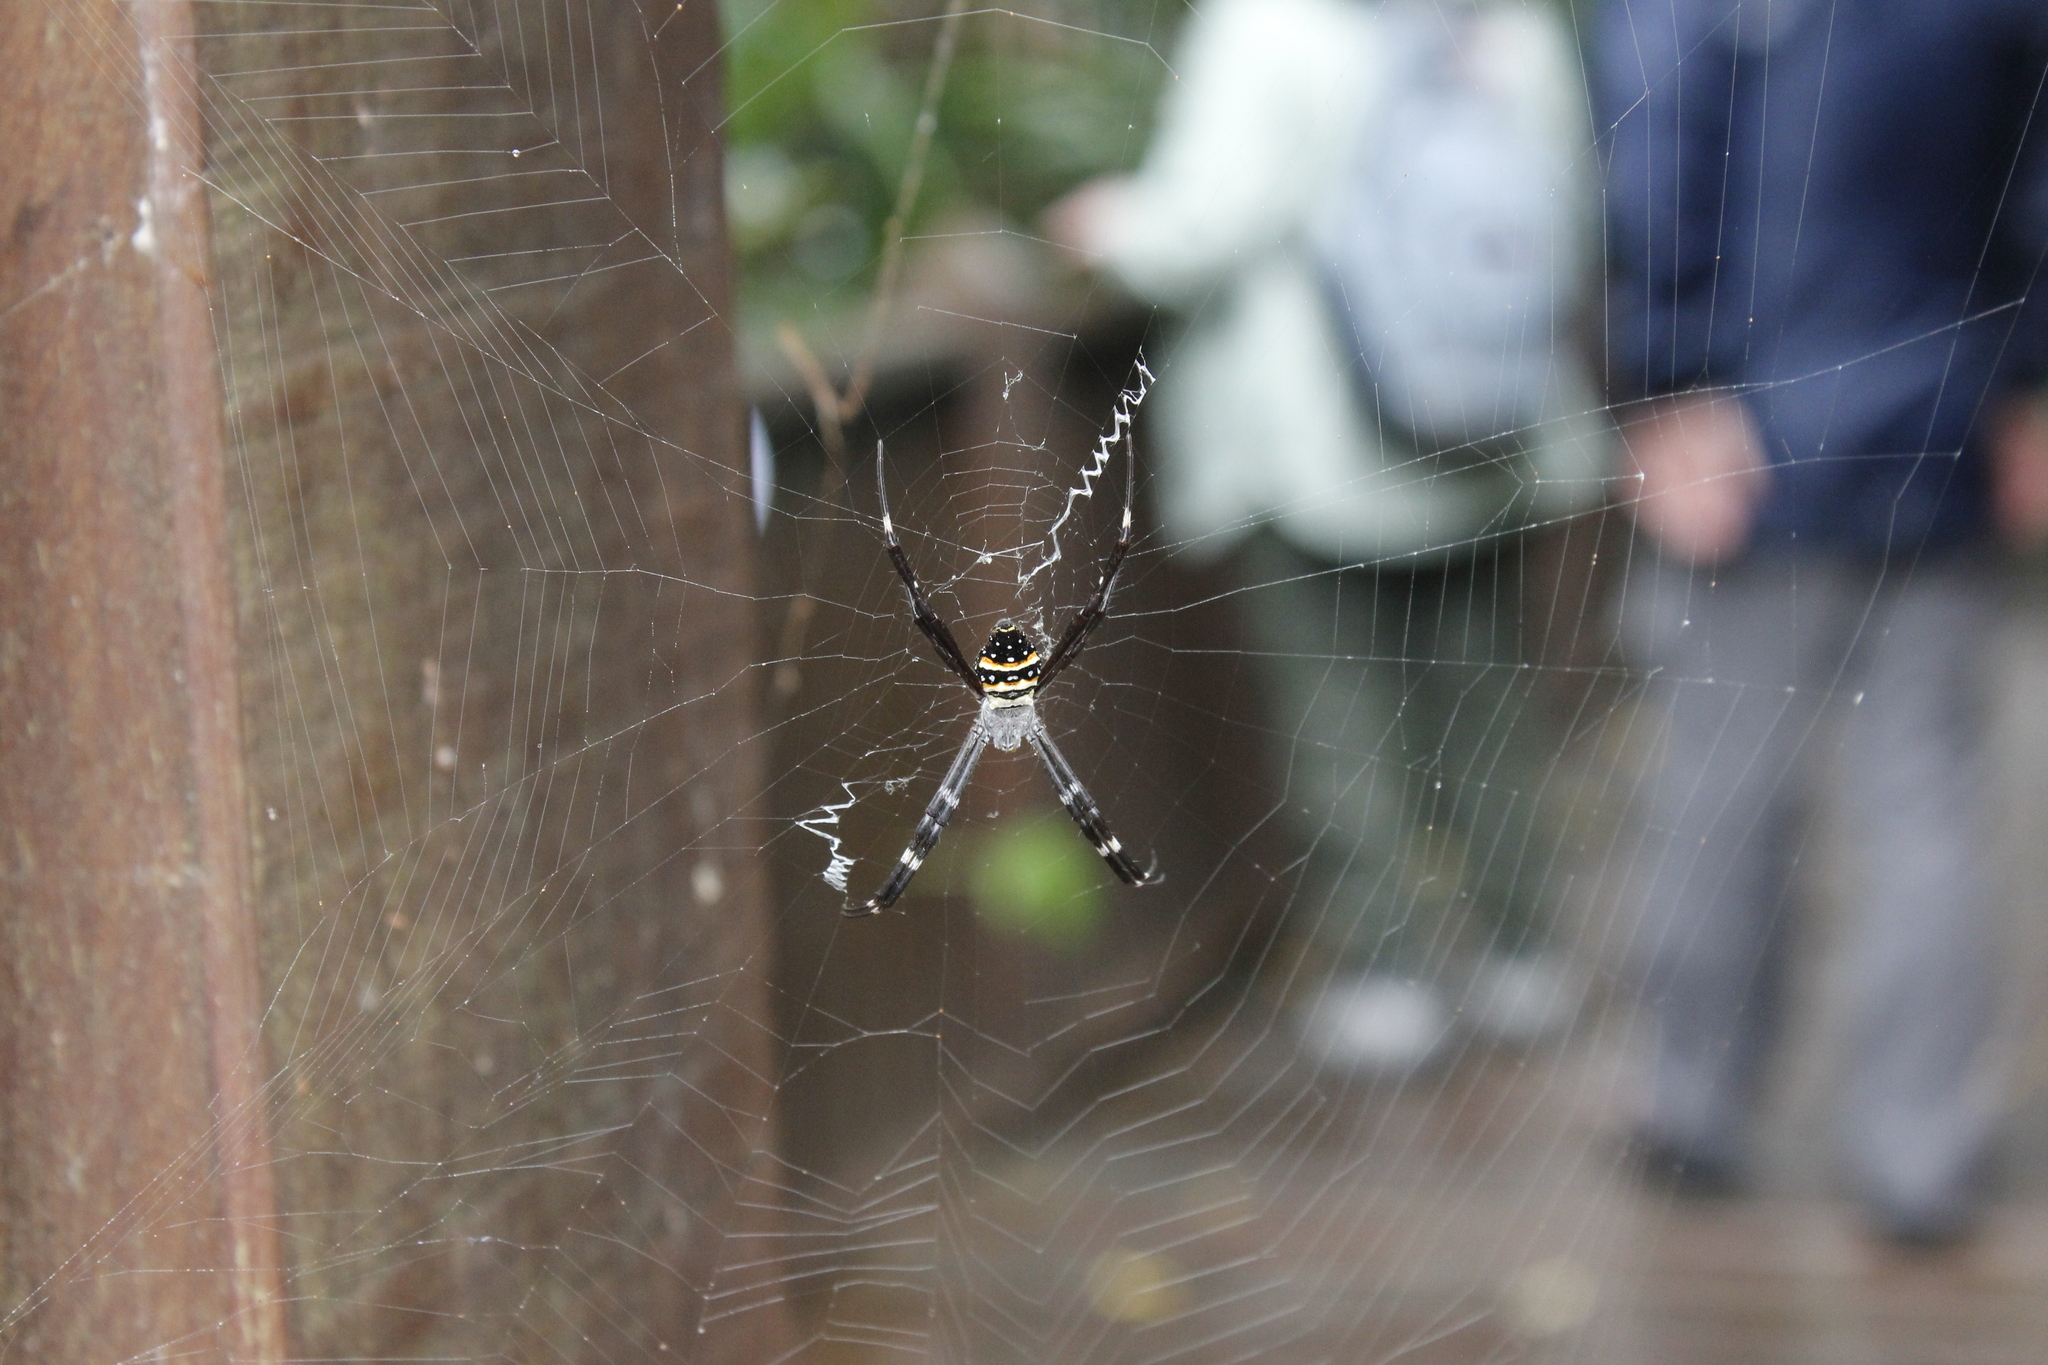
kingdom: Animalia
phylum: Arthropoda
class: Arachnida
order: Araneae
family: Araneidae
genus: Argiope
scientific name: Argiope caledonia
